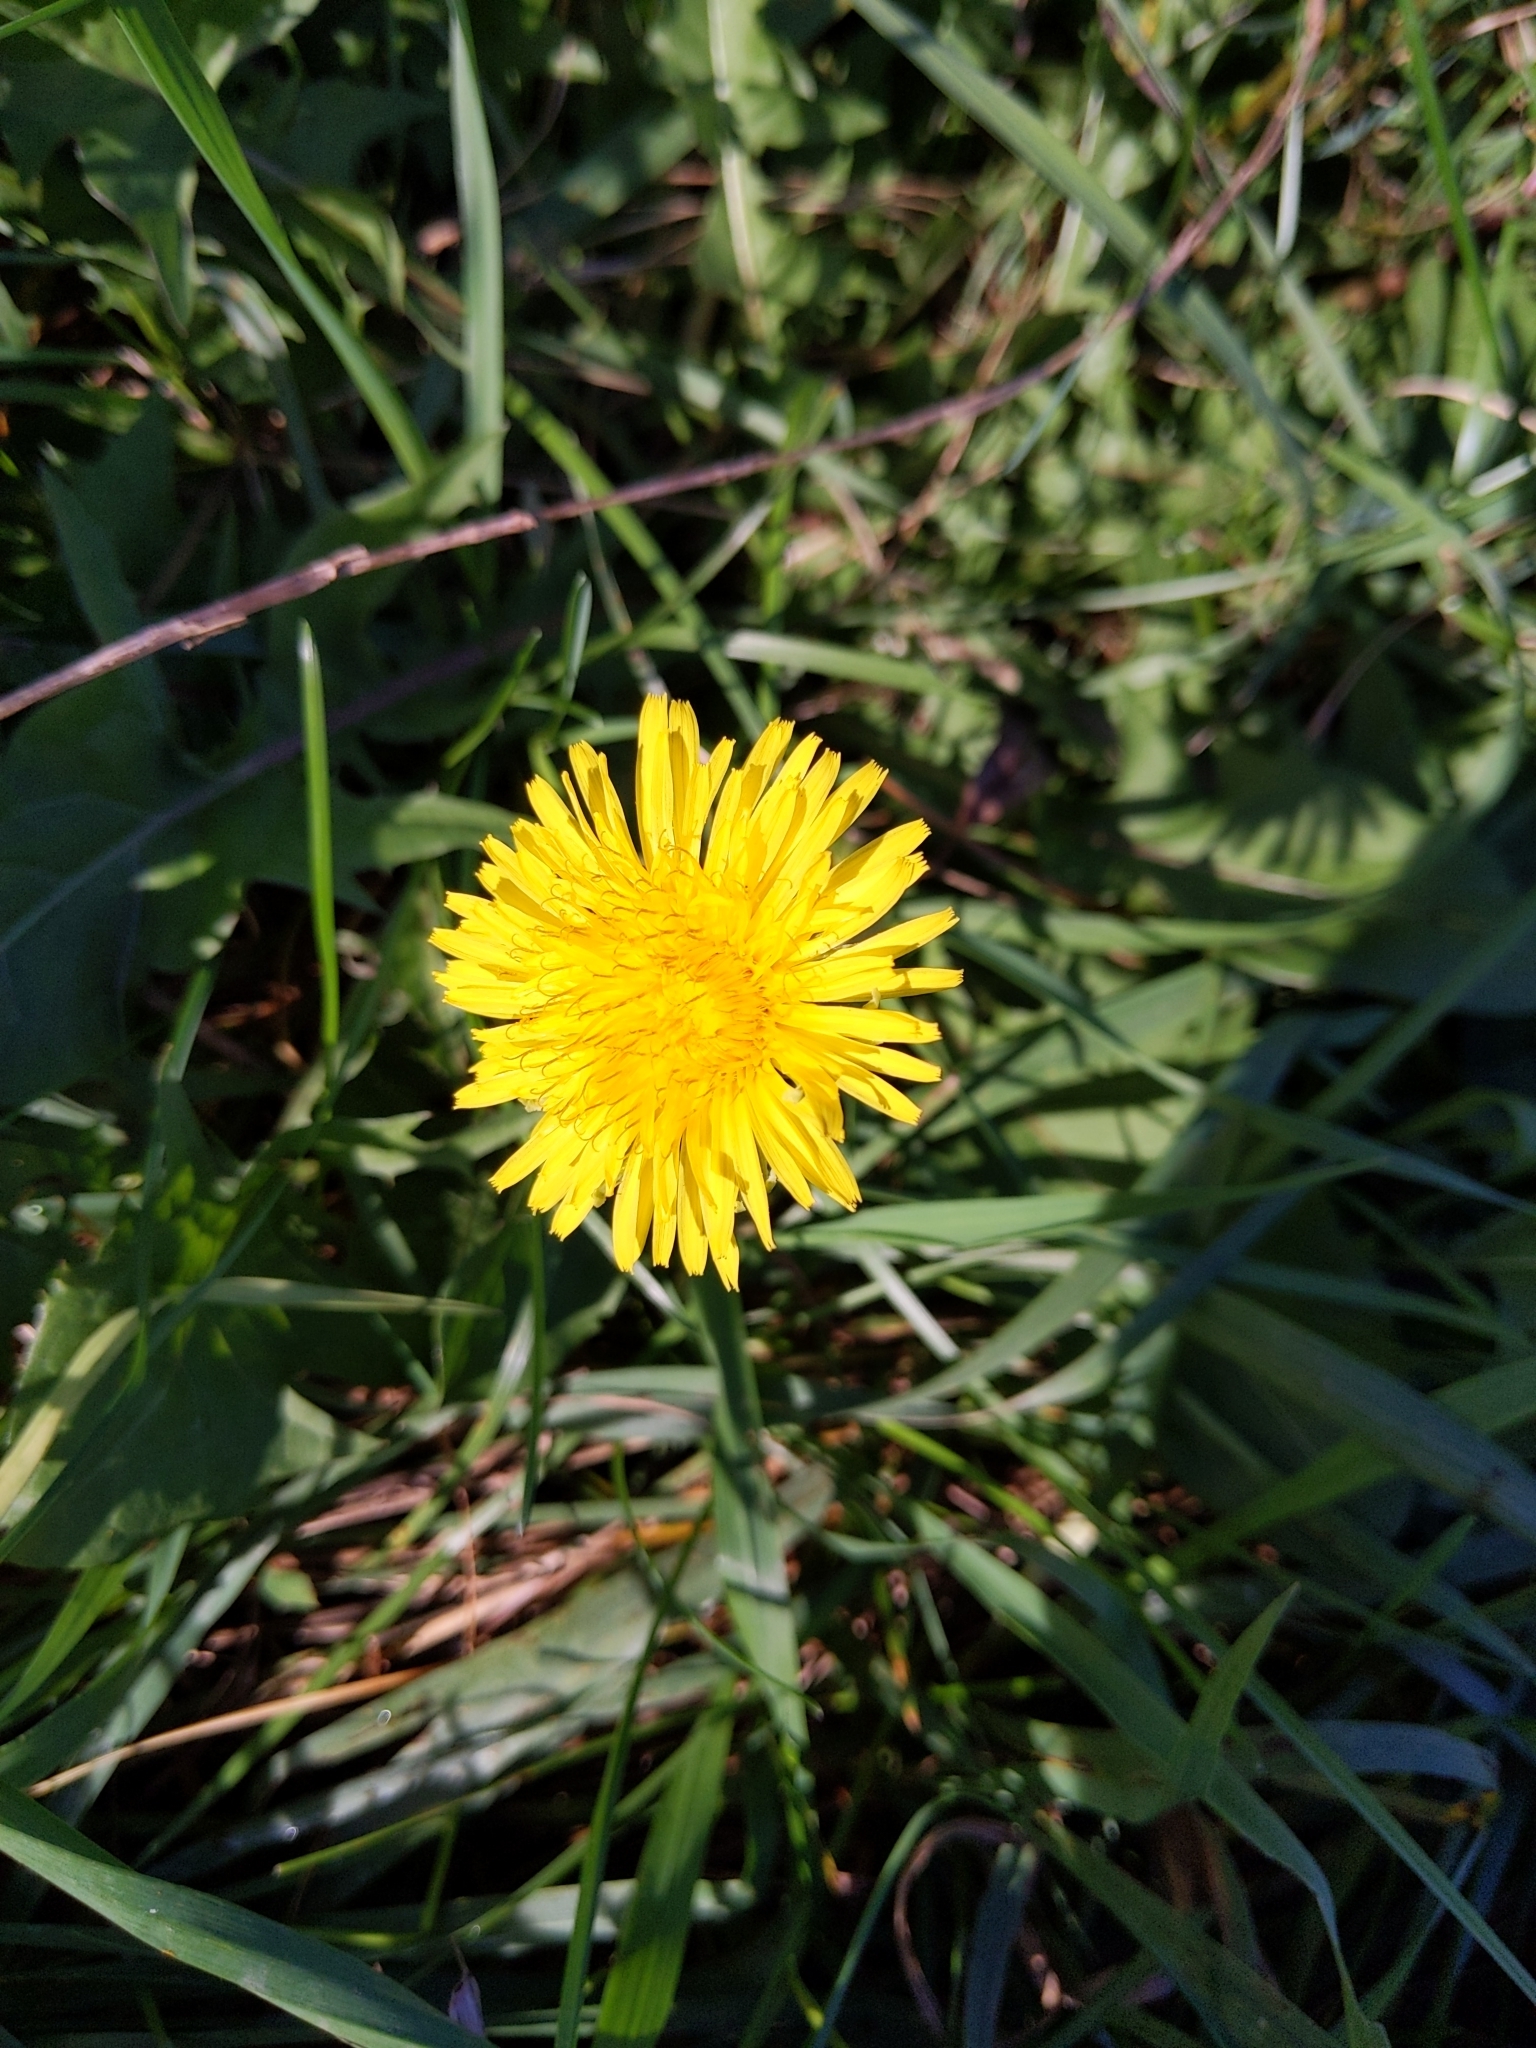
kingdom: Plantae
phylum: Tracheophyta
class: Magnoliopsida
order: Asterales
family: Asteraceae
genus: Taraxacum
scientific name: Taraxacum officinale
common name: Common dandelion
